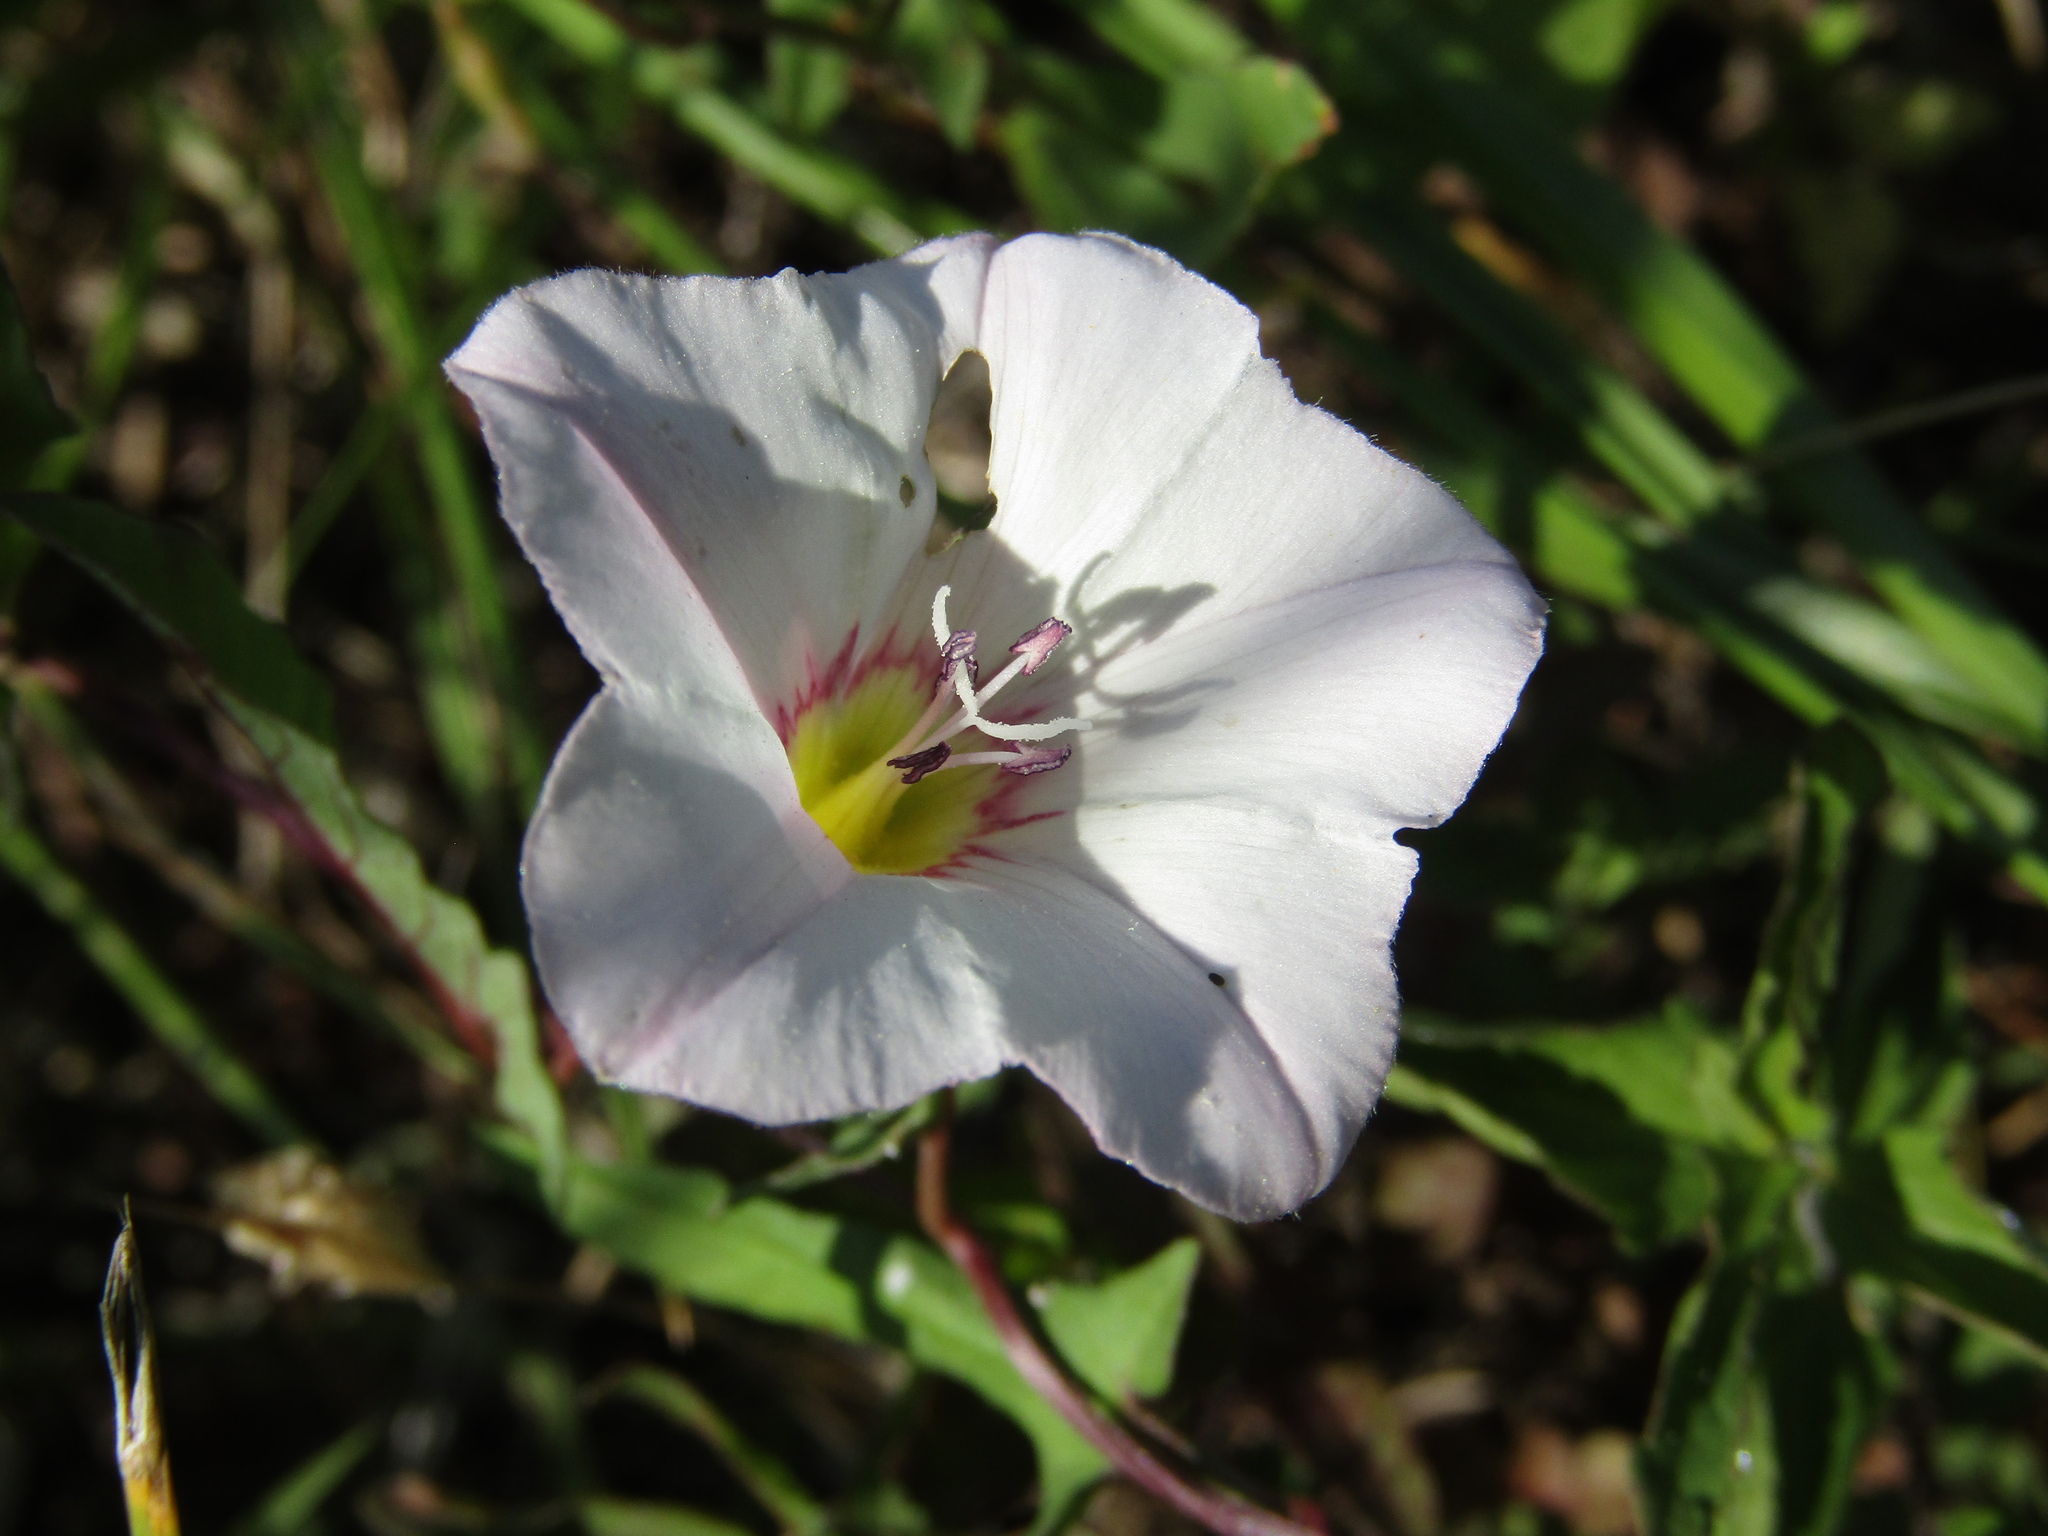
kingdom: Plantae
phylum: Tracheophyta
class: Magnoliopsida
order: Solanales
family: Convolvulaceae
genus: Convolvulus
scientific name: Convolvulus arvensis
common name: Field bindweed
